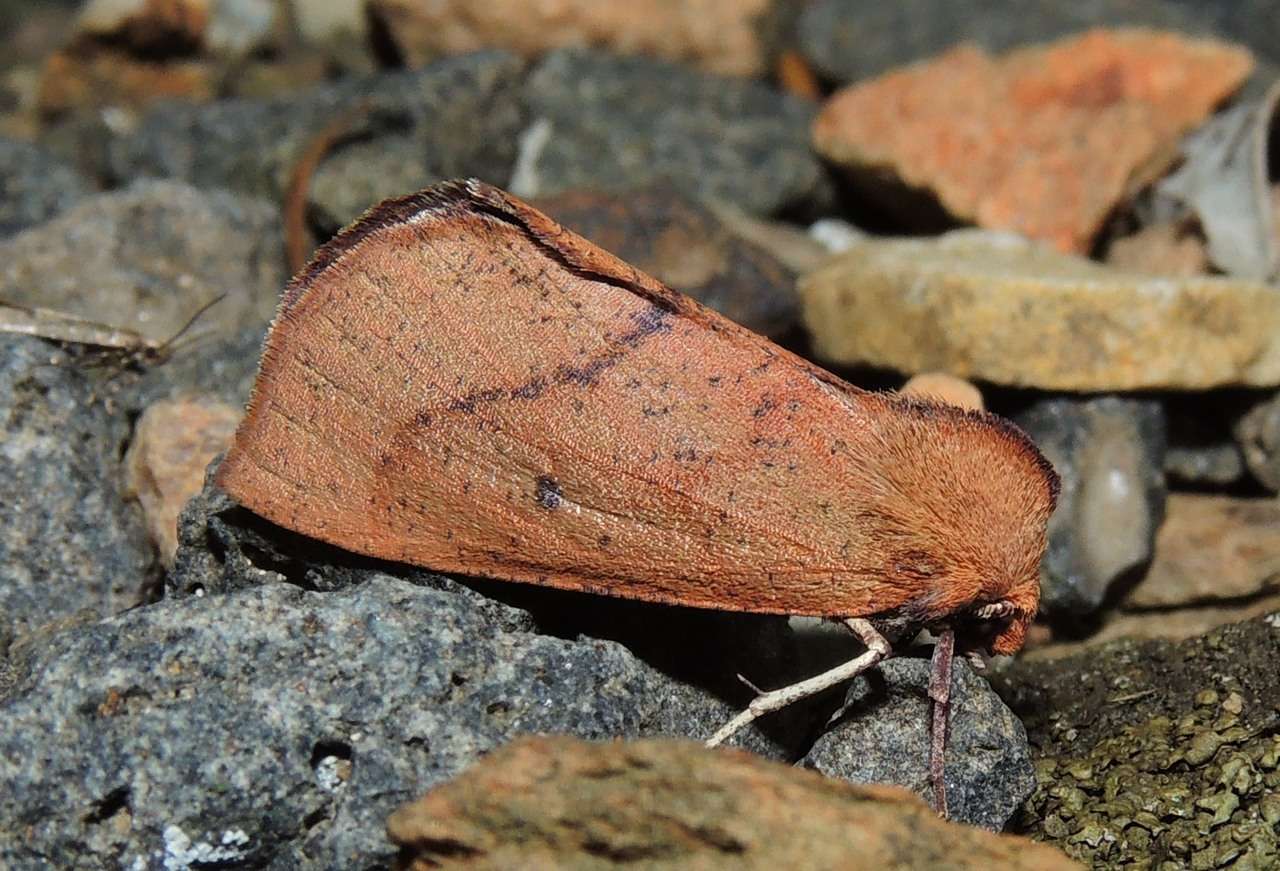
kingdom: Animalia
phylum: Arthropoda
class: Insecta
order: Lepidoptera
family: Geometridae
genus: Fisera
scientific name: Fisera hypoleuca
